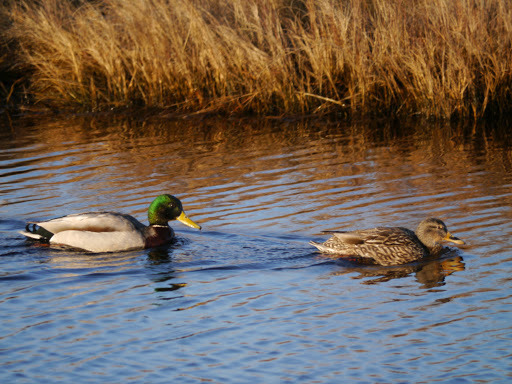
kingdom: Animalia
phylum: Chordata
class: Aves
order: Anseriformes
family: Anatidae
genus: Anas
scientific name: Anas platyrhynchos
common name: Mallard
